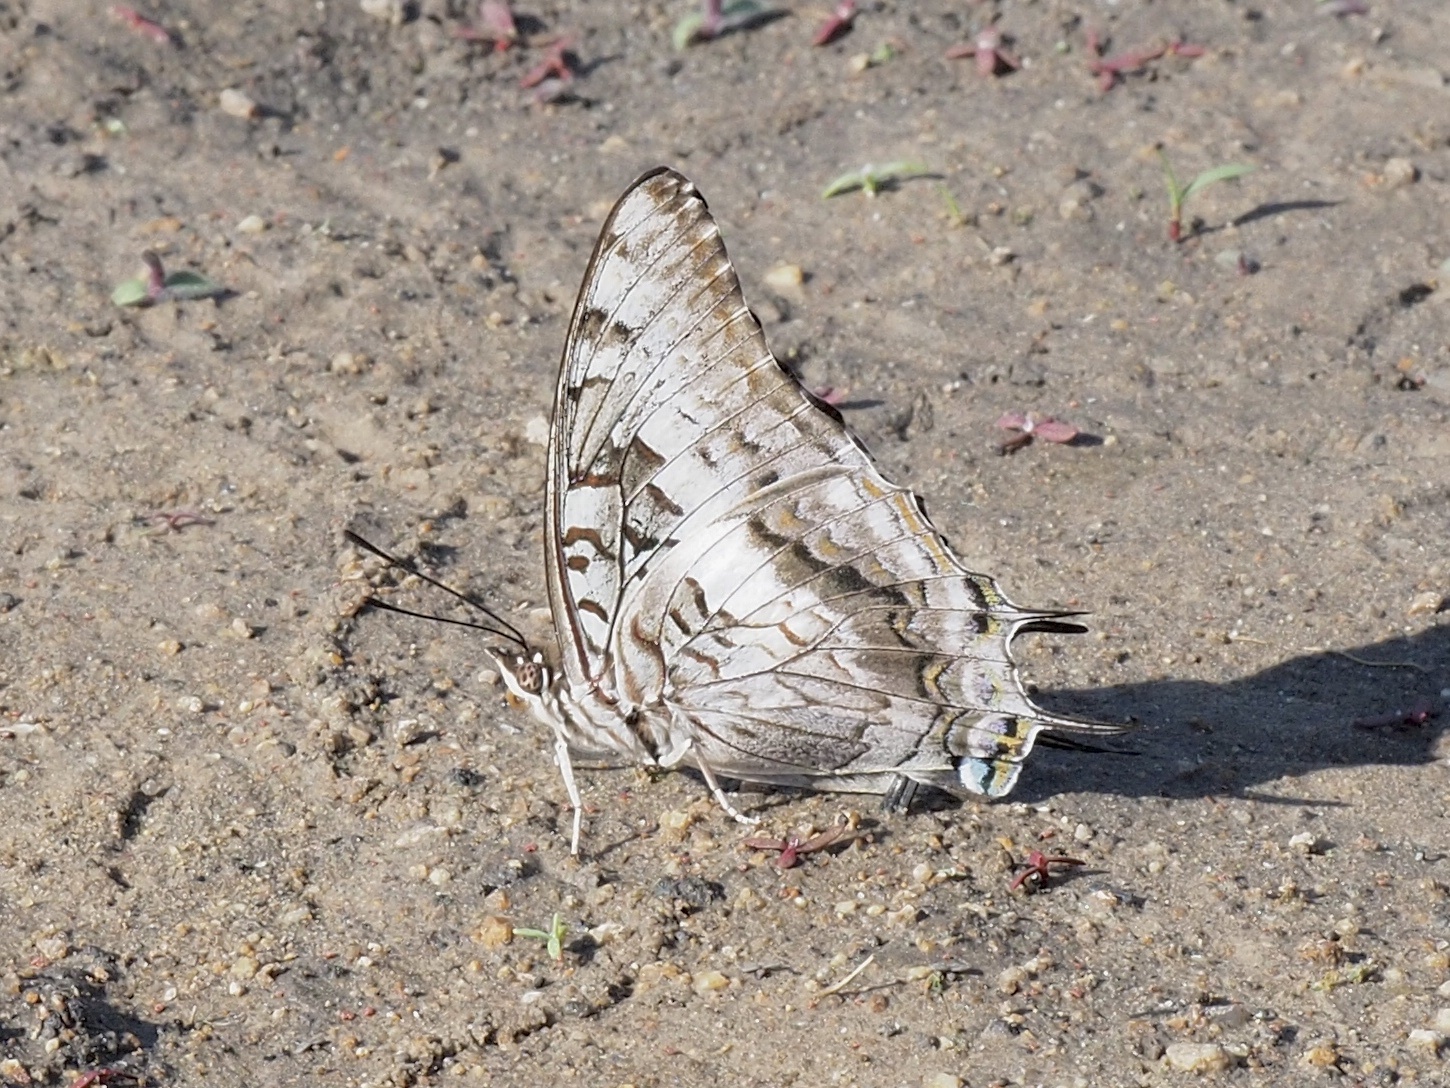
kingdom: Animalia
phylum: Arthropoda
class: Insecta
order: Lepidoptera
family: Nymphalidae
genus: Charaxes
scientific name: Charaxes achaemenes
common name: Bushveld charaxes
